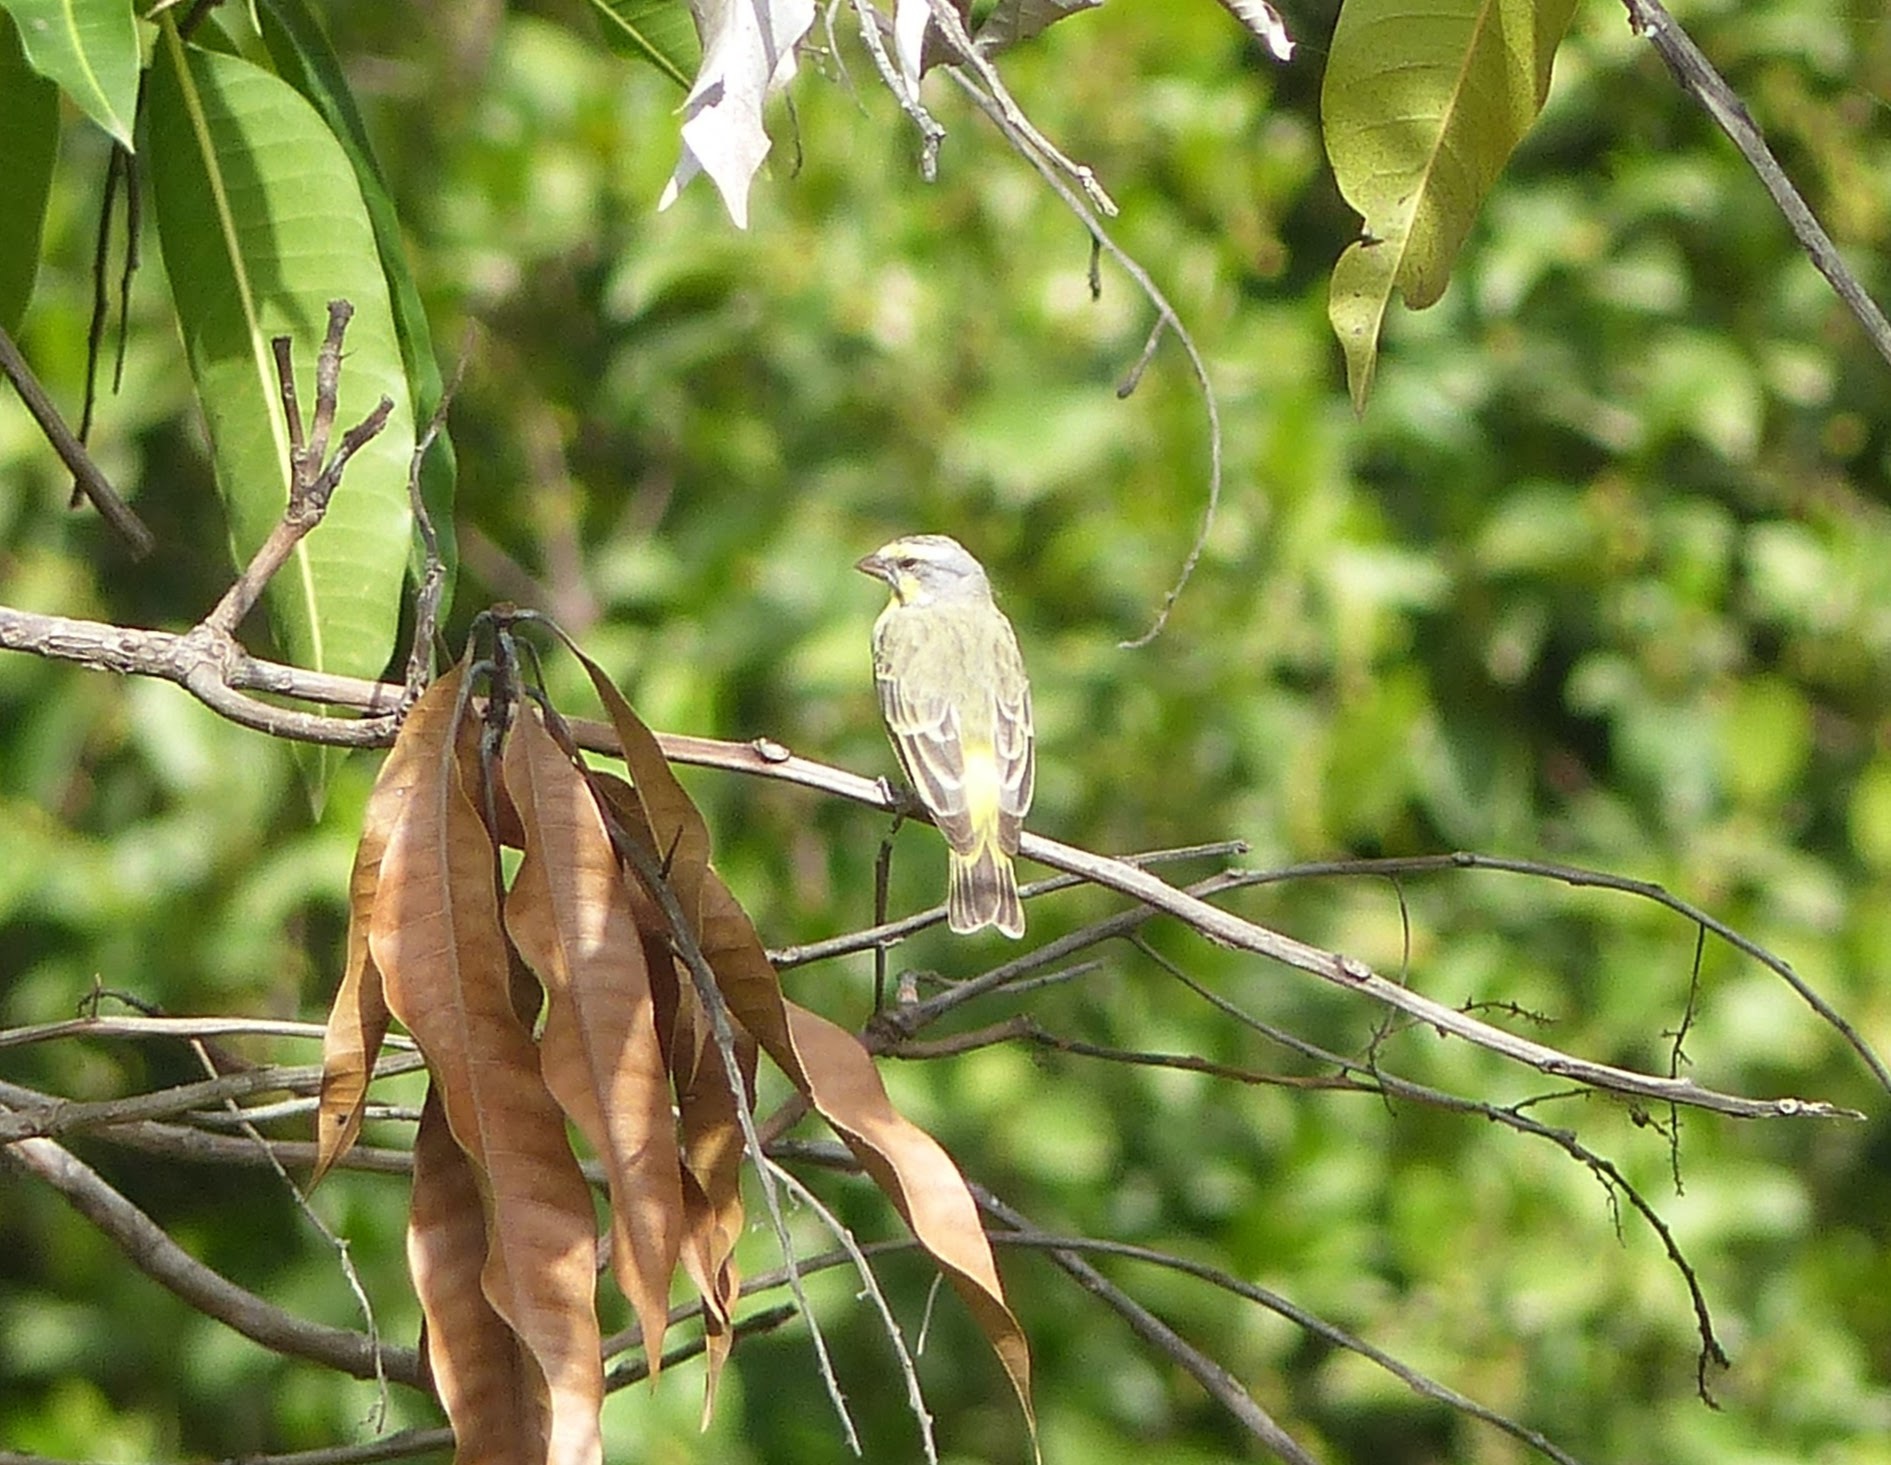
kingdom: Animalia
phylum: Chordata
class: Aves
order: Passeriformes
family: Fringillidae
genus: Crithagra
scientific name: Crithagra mozambica
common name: Yellow-fronted canary
